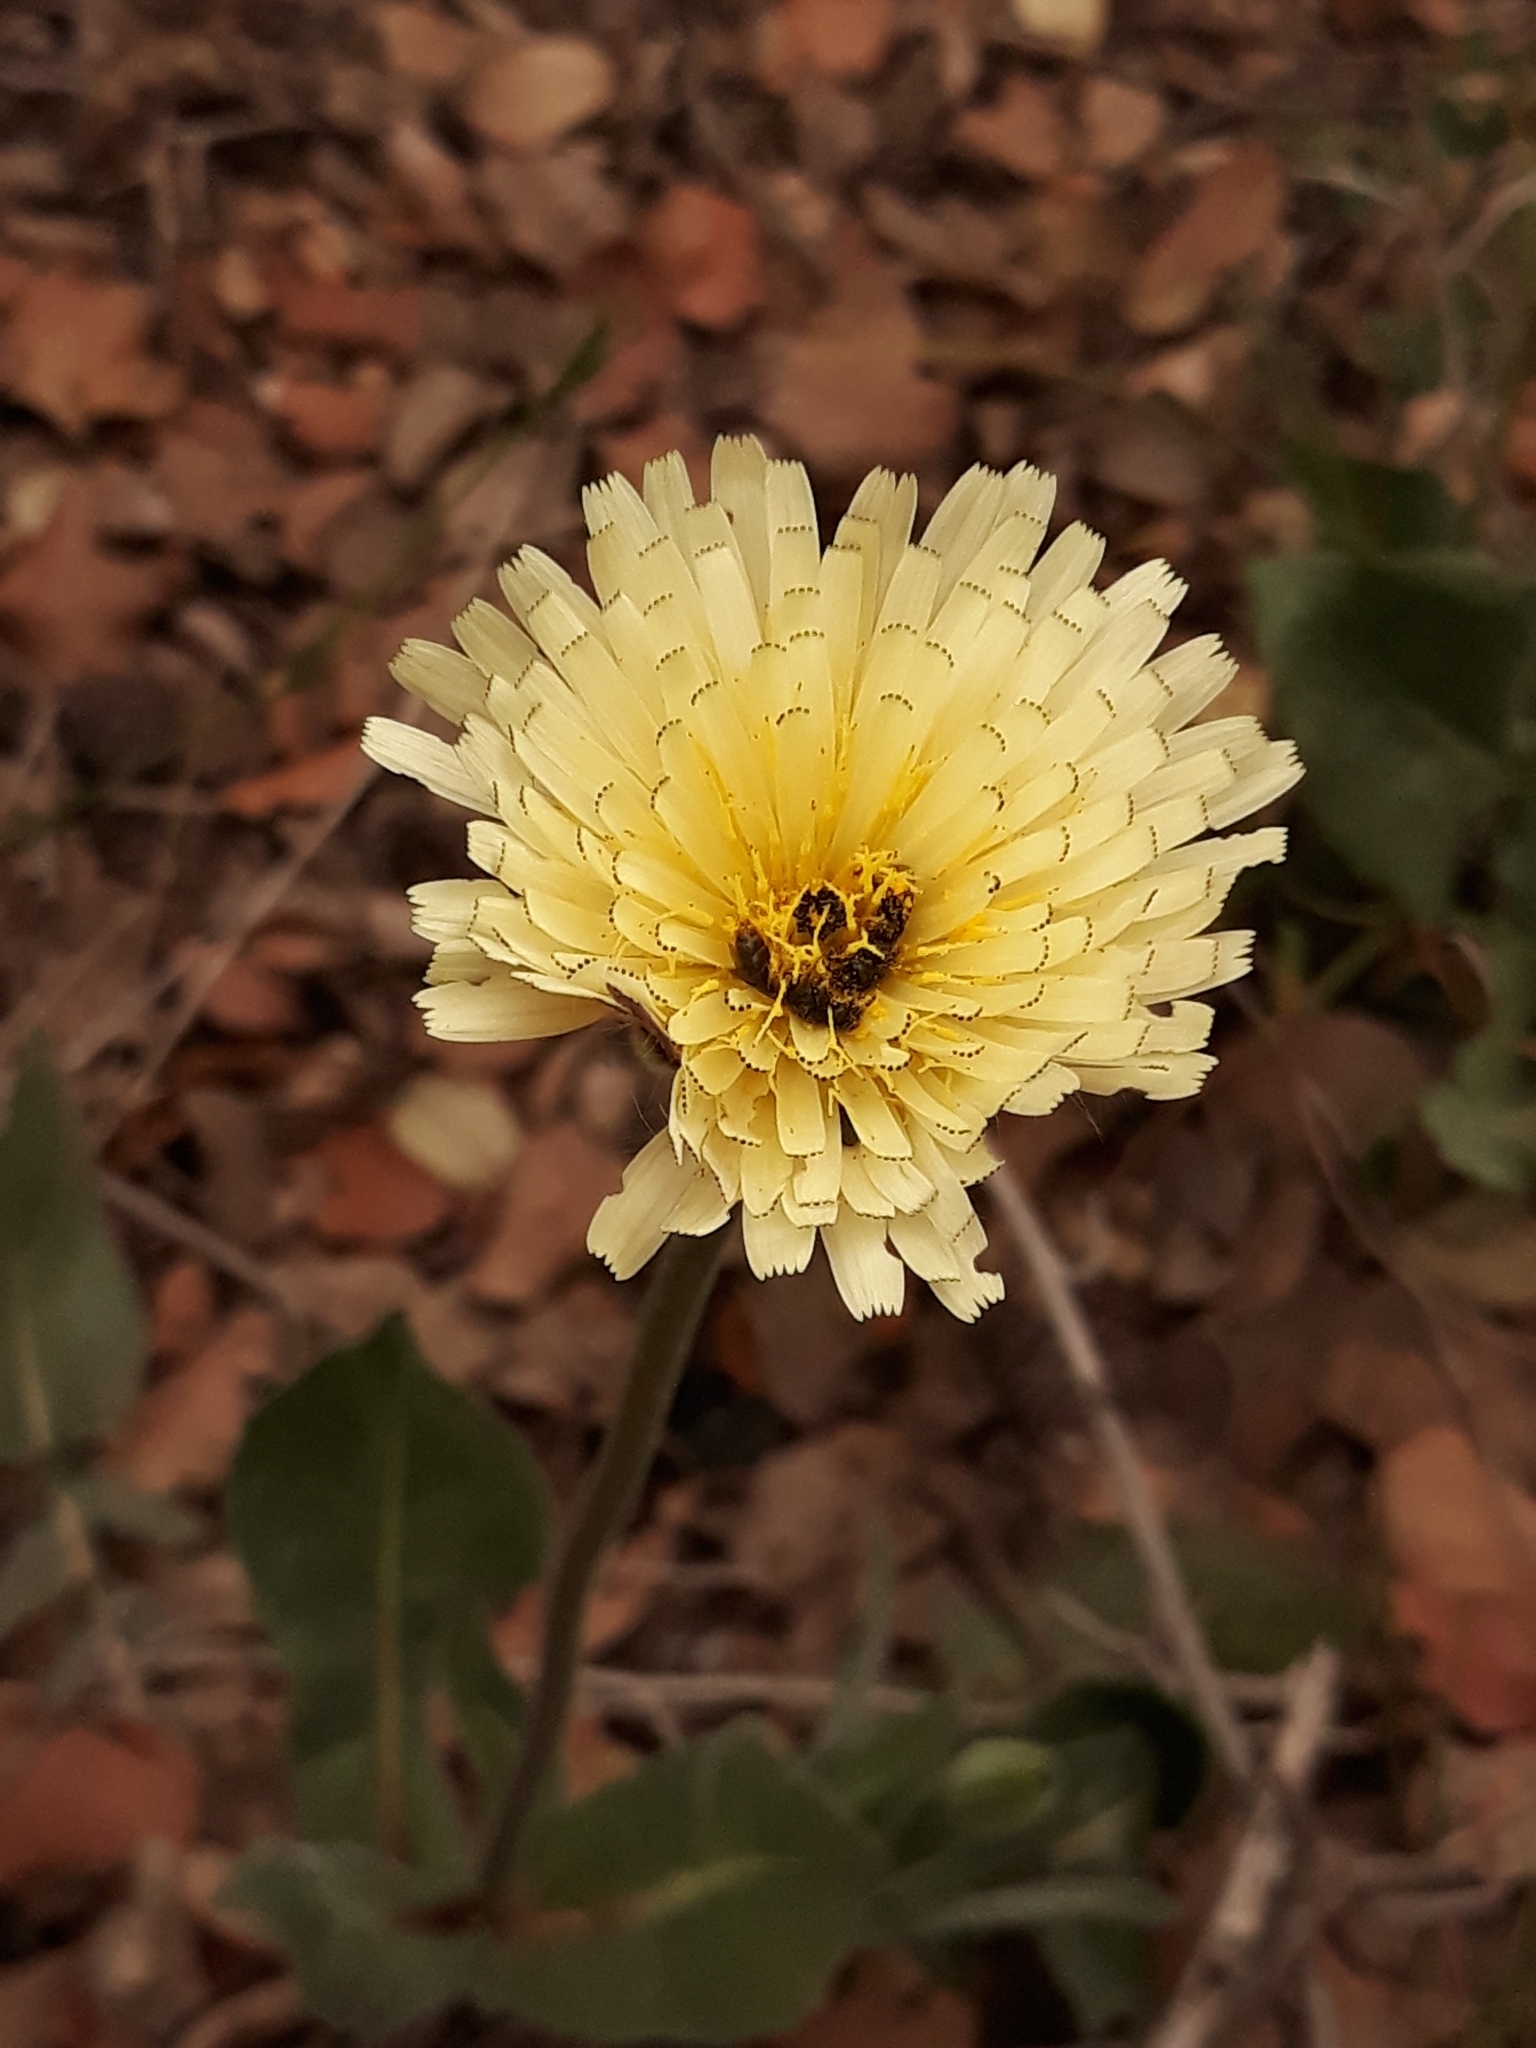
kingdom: Plantae
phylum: Tracheophyta
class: Magnoliopsida
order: Asterales
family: Asteraceae
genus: Urospermum
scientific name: Urospermum dalechampii
